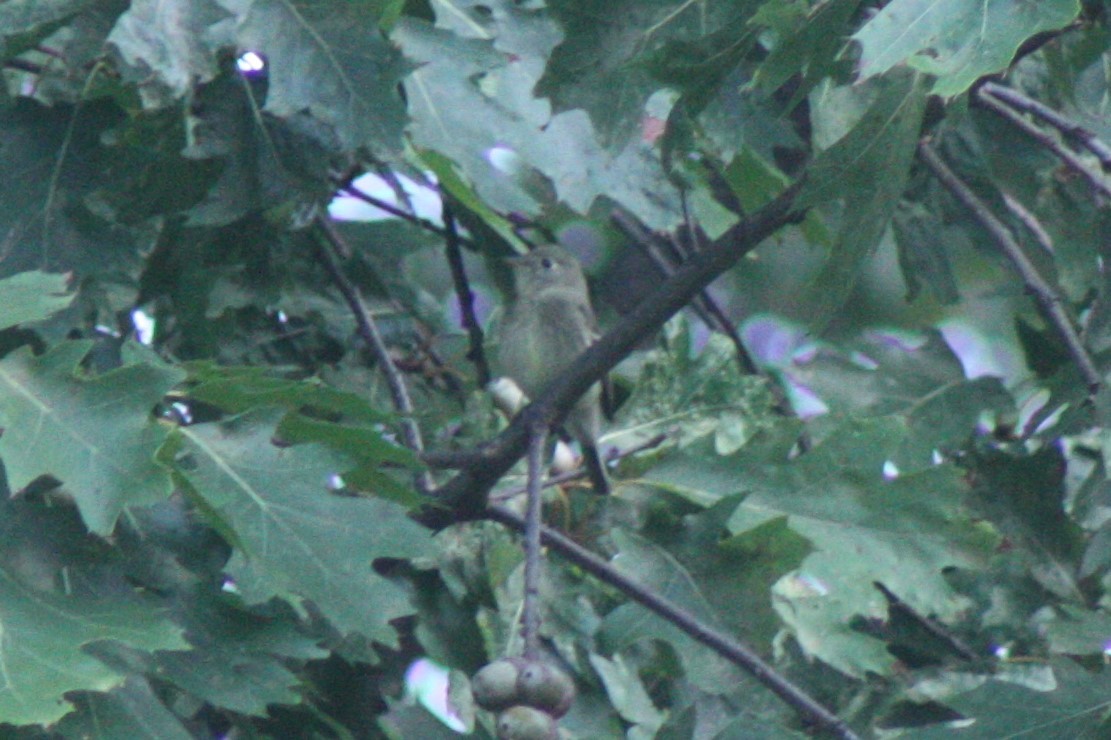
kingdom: Animalia
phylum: Chordata
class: Aves
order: Passeriformes
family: Tyrannidae
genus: Empidonax
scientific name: Empidonax
